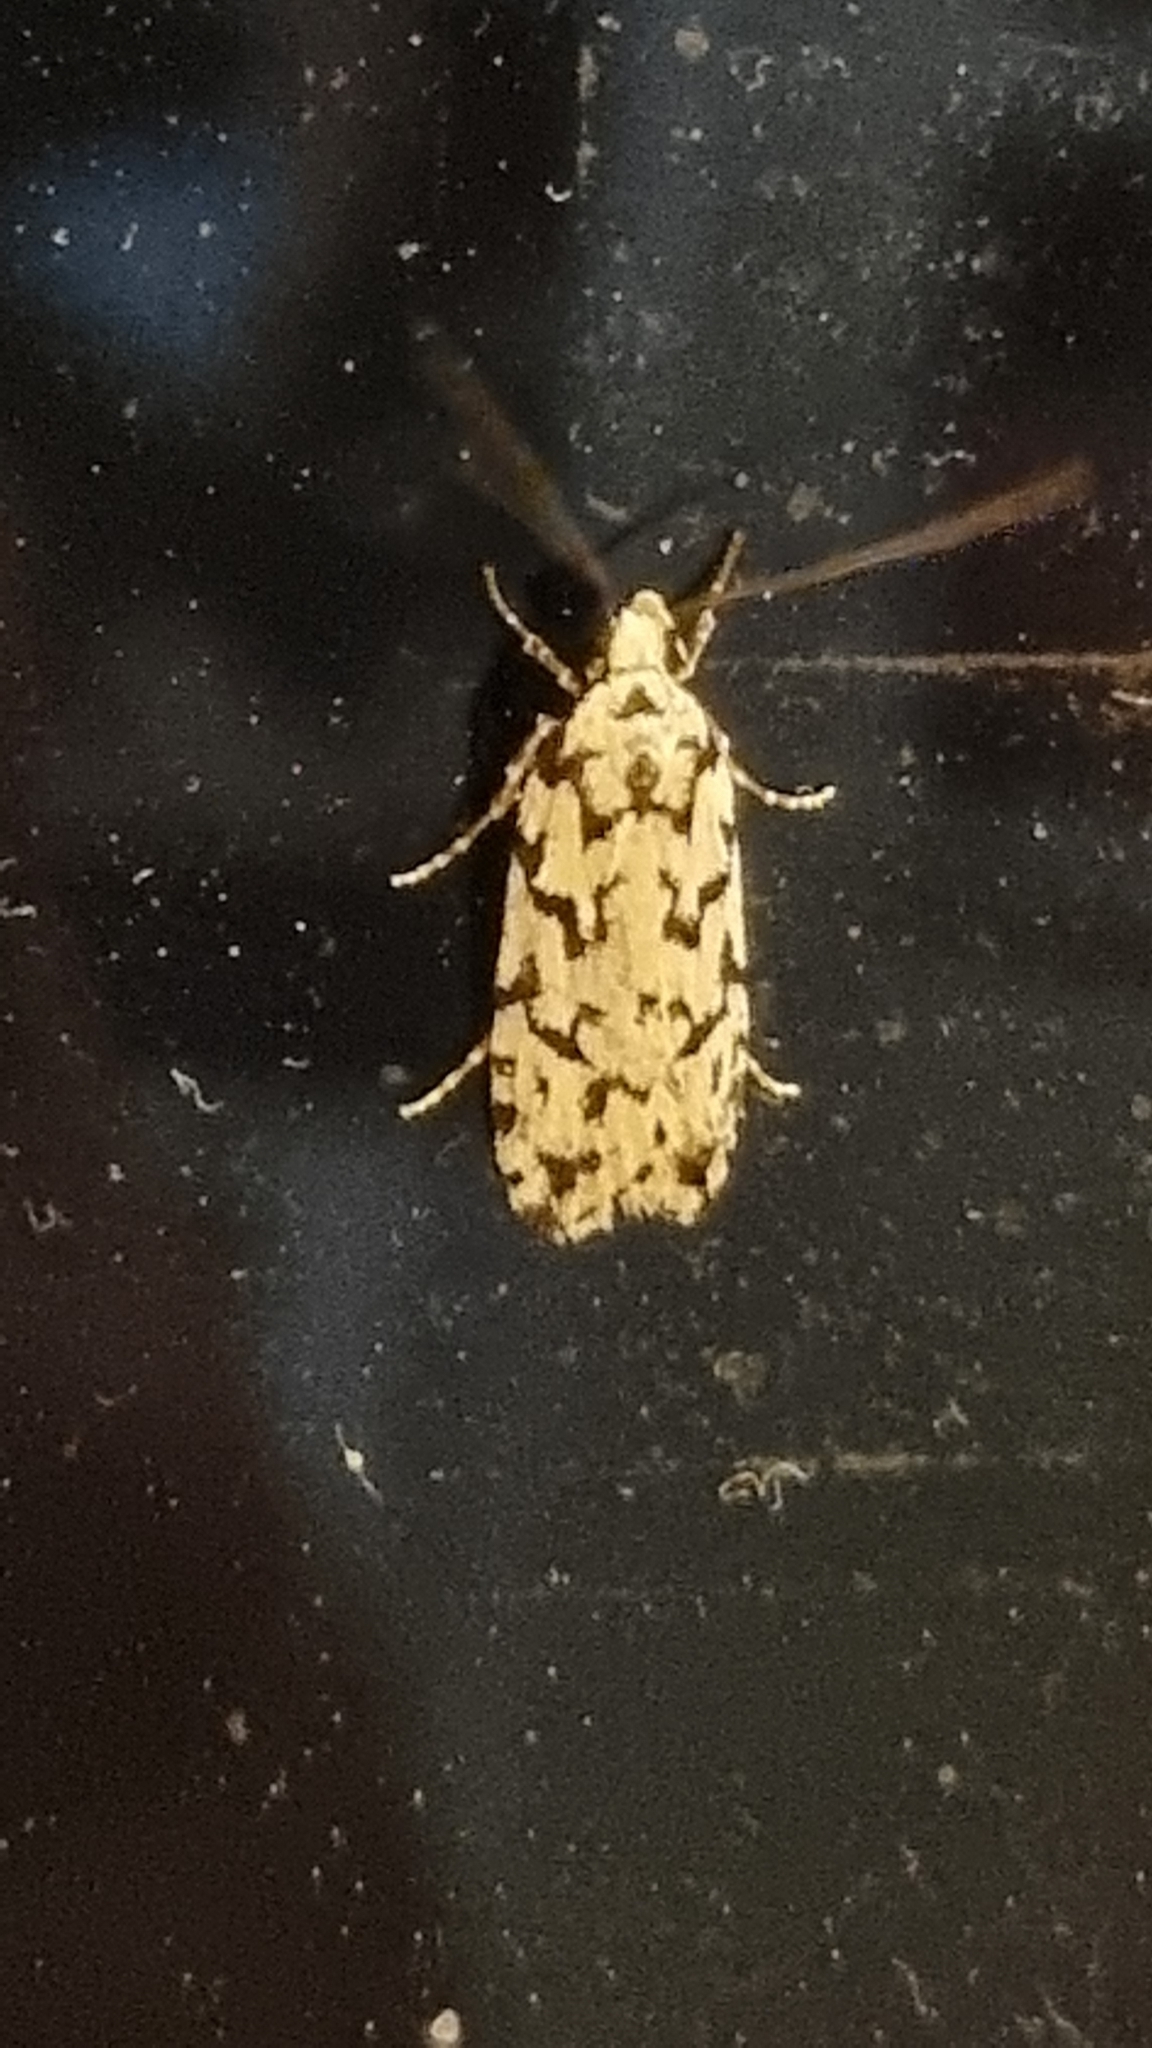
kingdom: Animalia
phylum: Arthropoda
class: Insecta
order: Lepidoptera
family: Oecophoridae
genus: Izatha
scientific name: Izatha katadiktya
